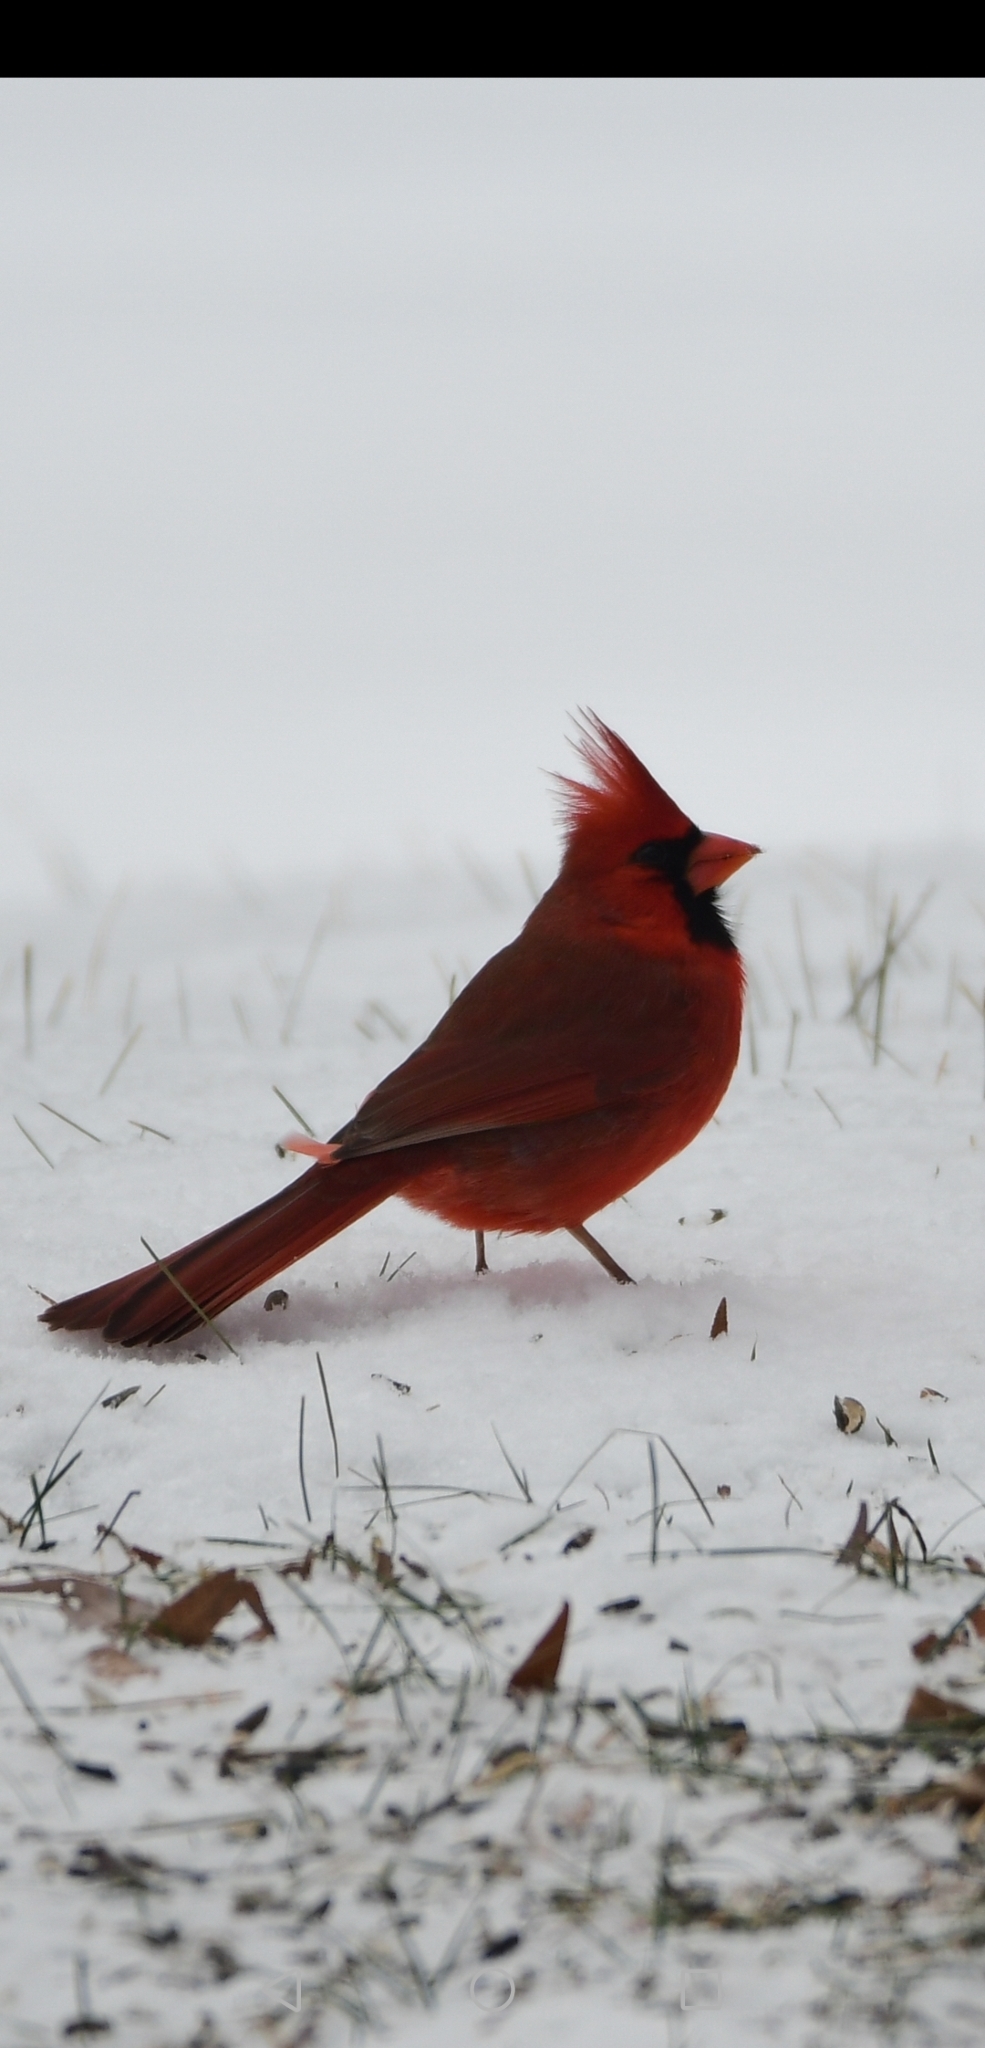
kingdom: Animalia
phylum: Chordata
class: Aves
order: Passeriformes
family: Cardinalidae
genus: Cardinalis
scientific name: Cardinalis cardinalis
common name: Northern cardinal
